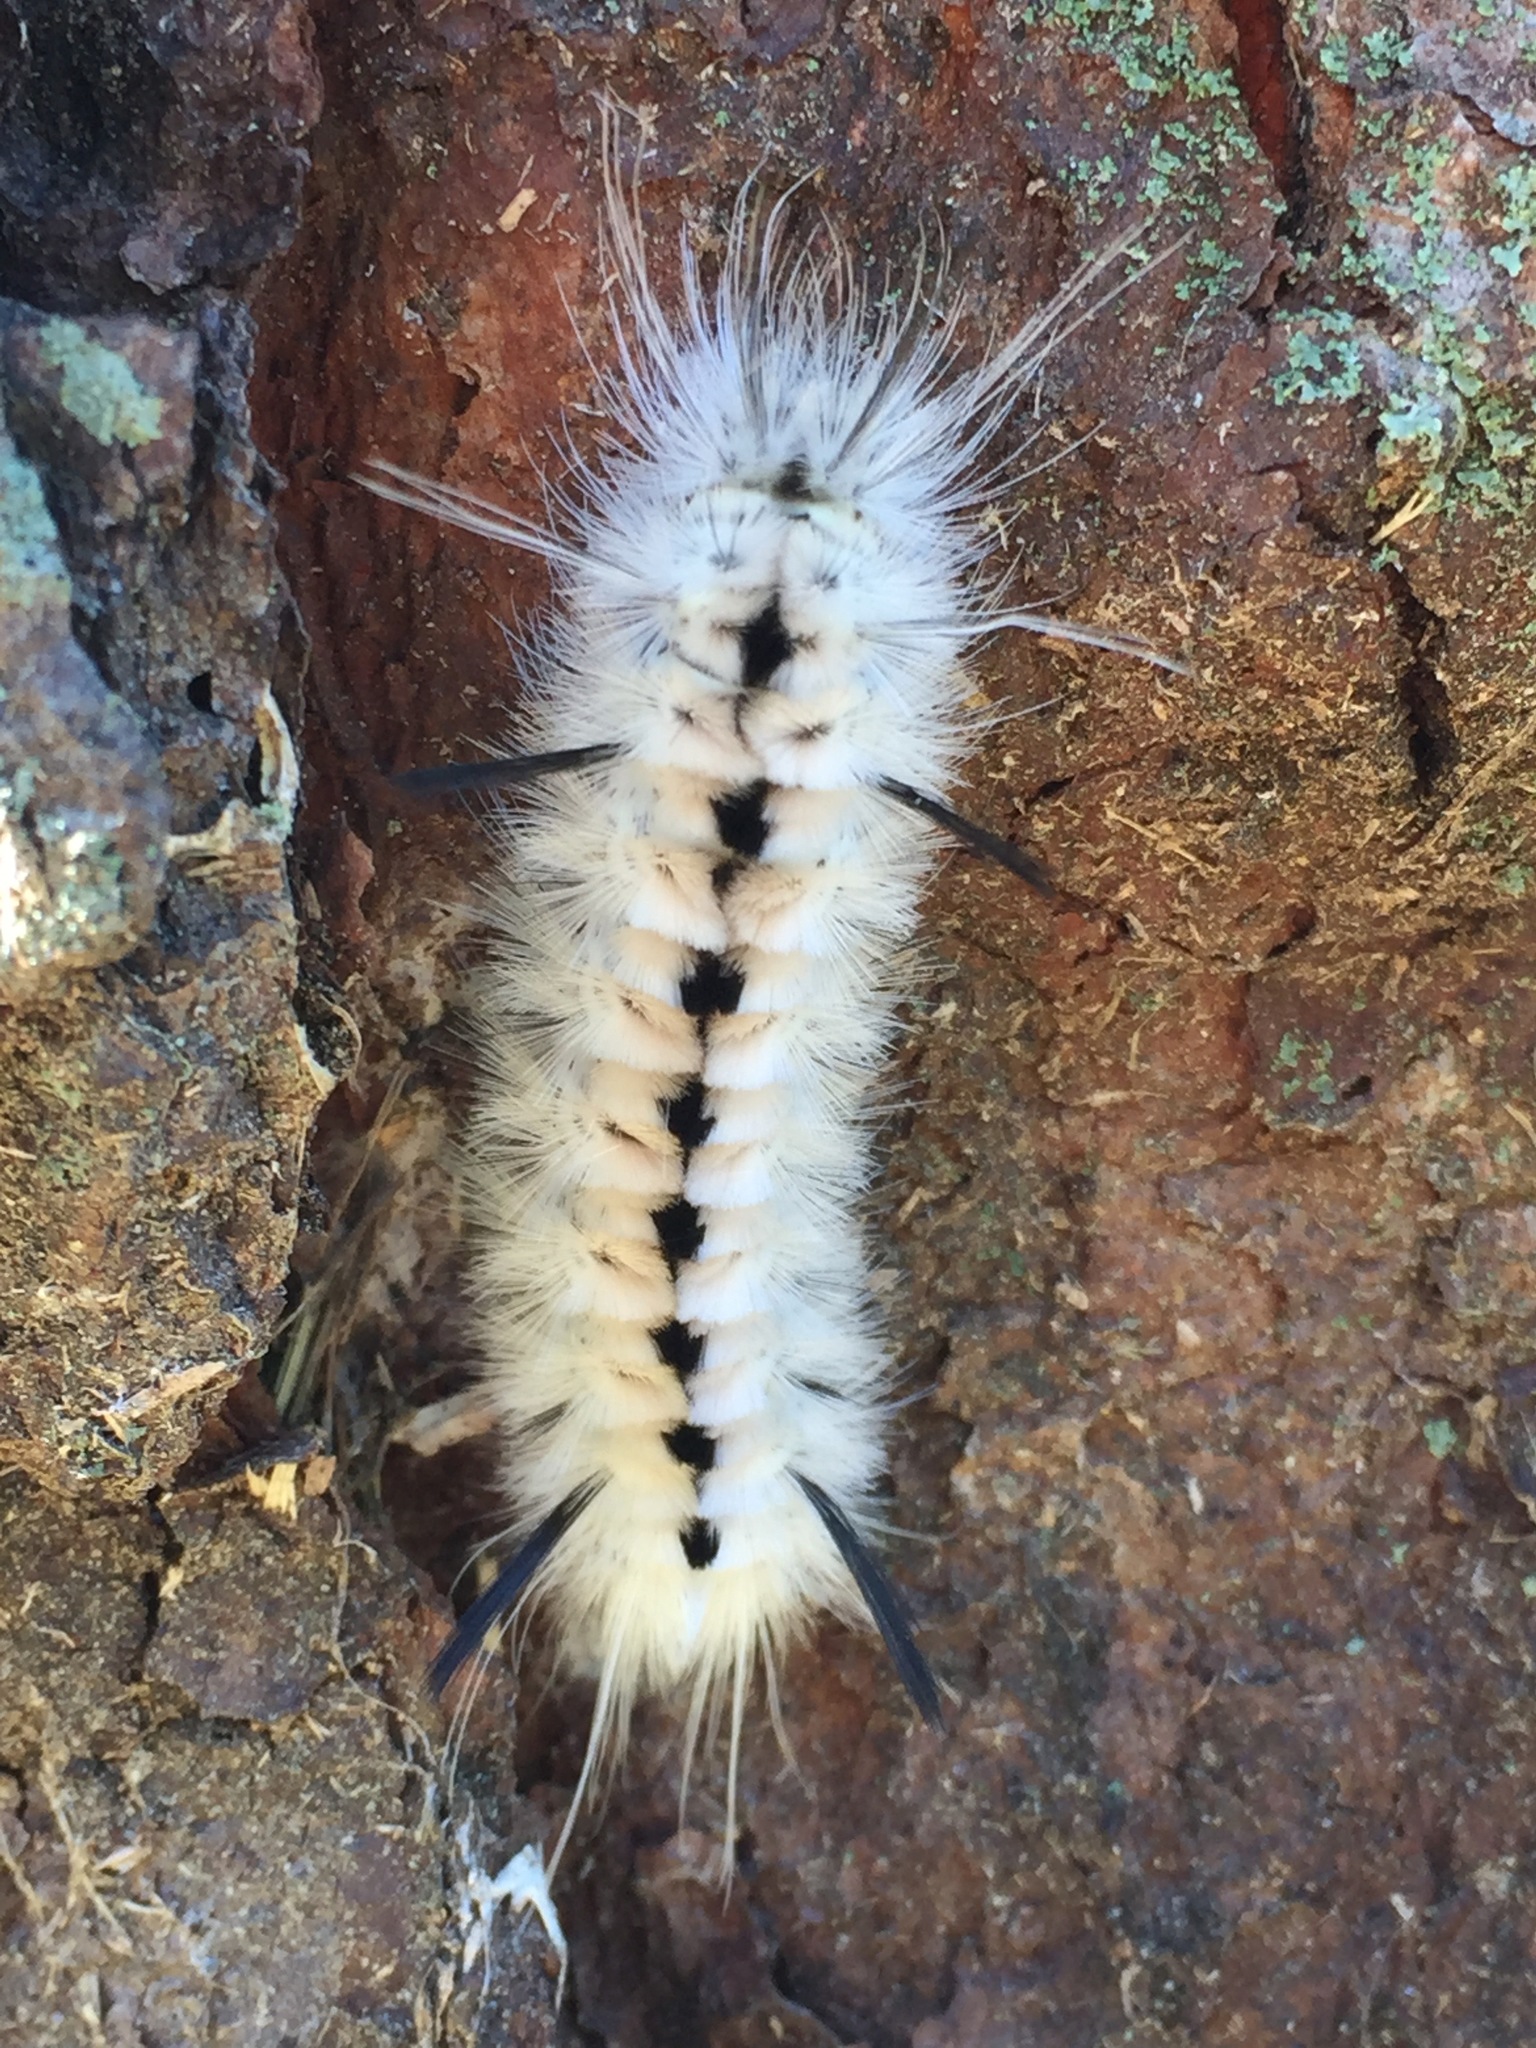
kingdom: Animalia
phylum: Arthropoda
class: Insecta
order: Lepidoptera
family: Erebidae
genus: Lophocampa
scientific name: Lophocampa caryae
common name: Hickory tussock moth
